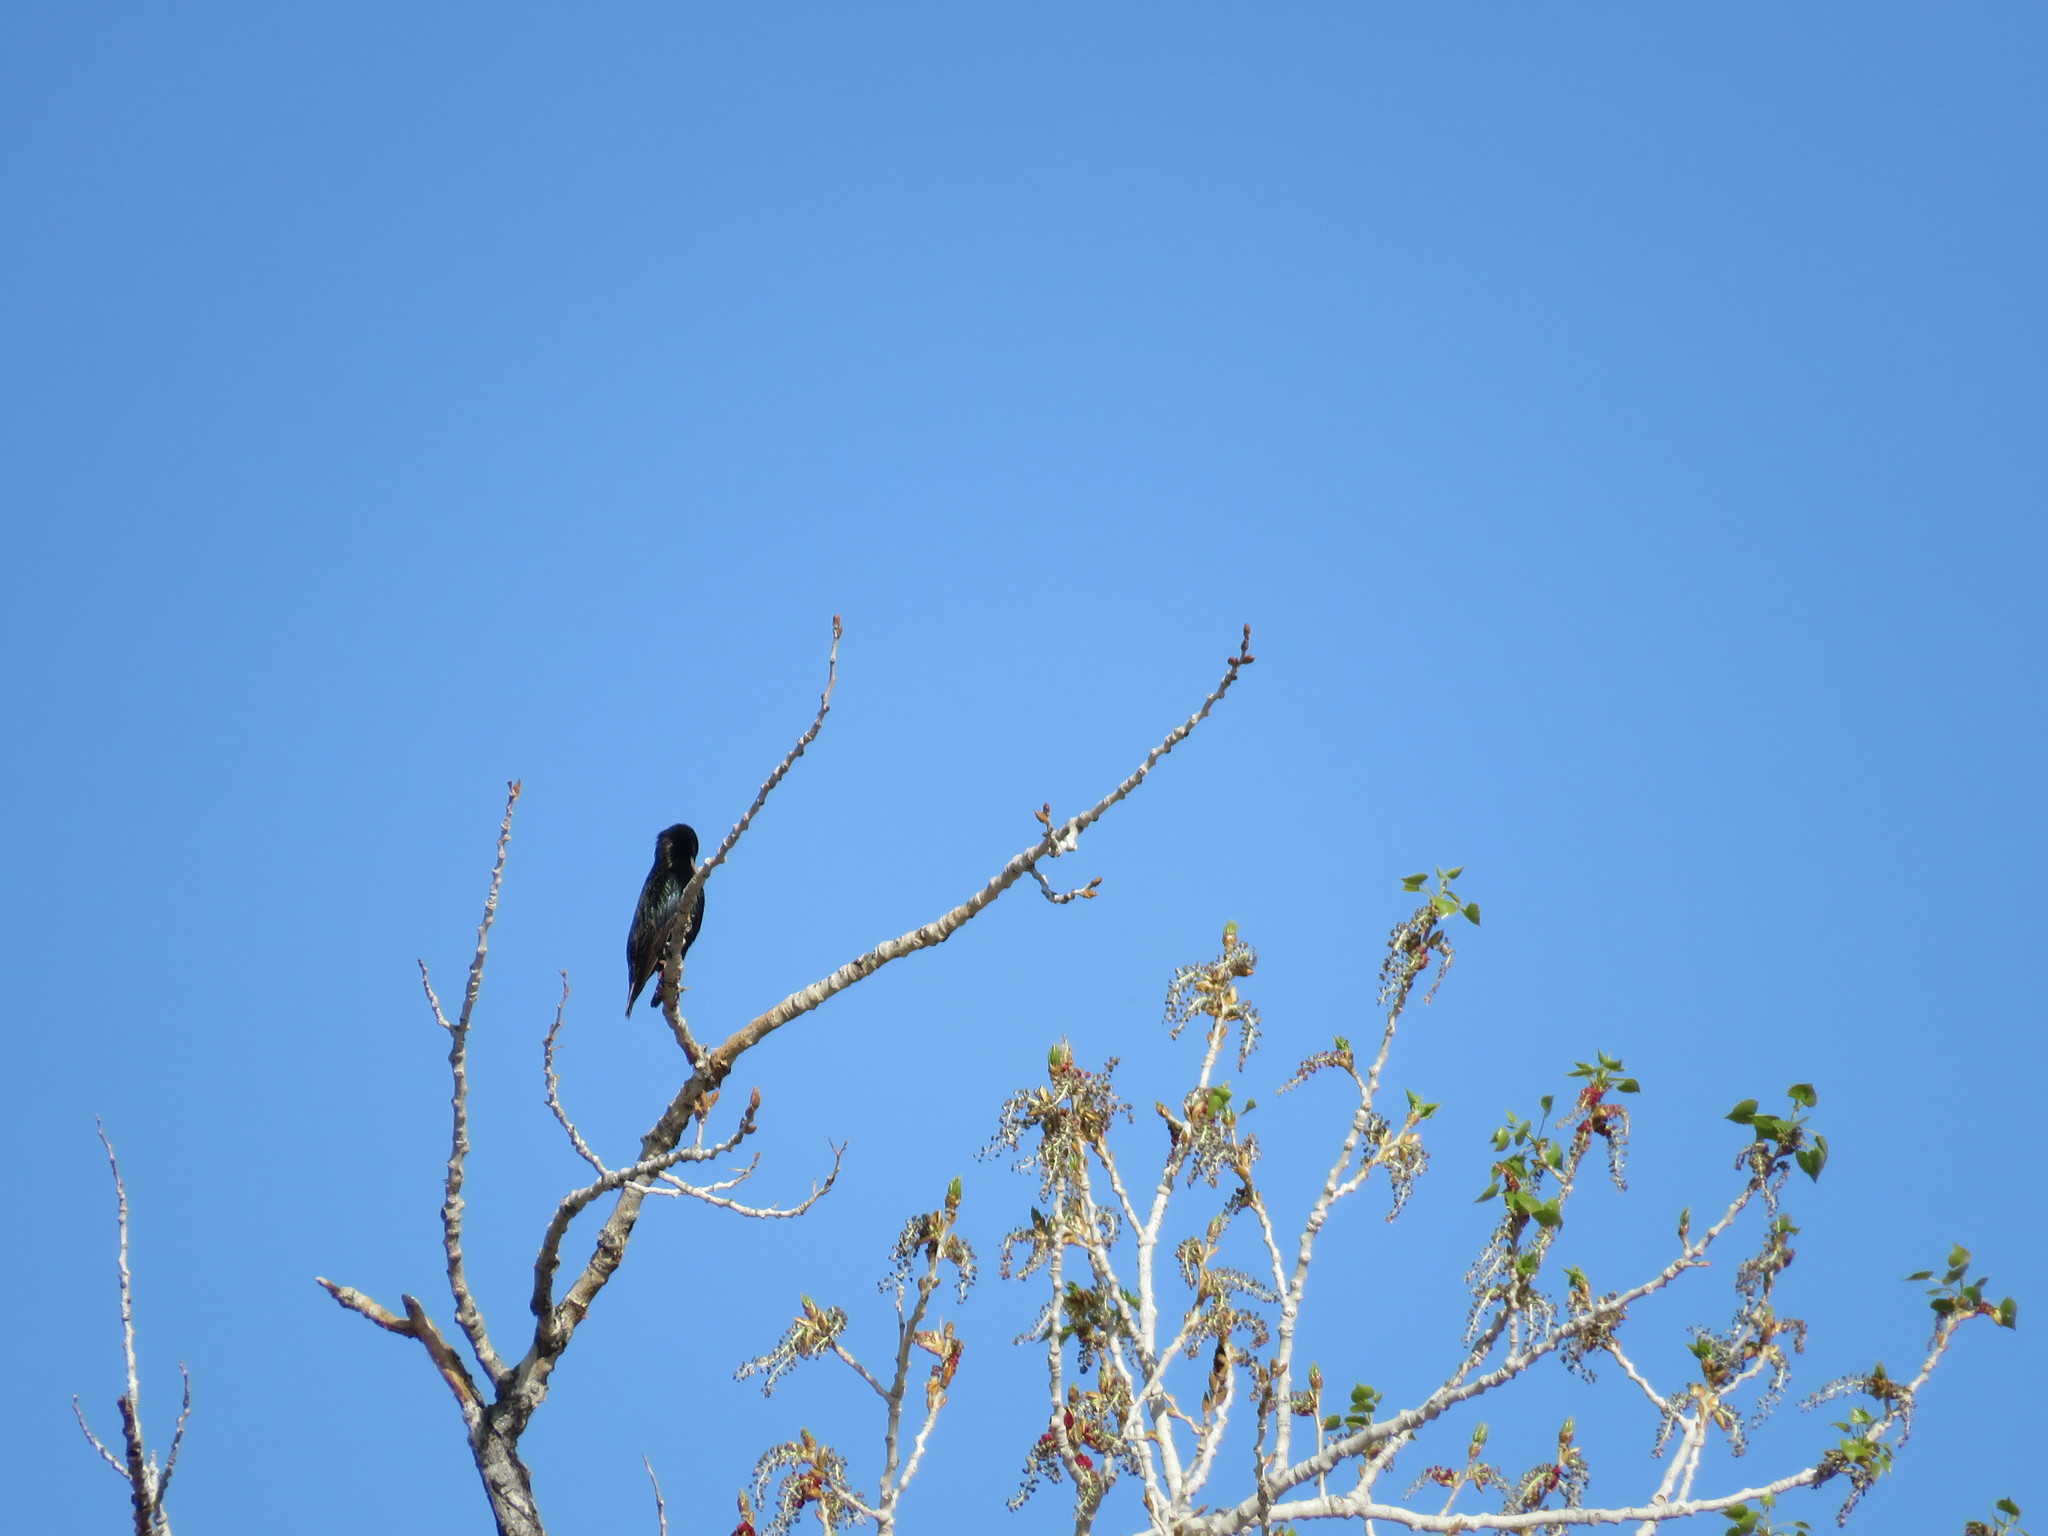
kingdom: Animalia
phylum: Chordata
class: Aves
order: Passeriformes
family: Sturnidae
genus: Sturnus
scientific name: Sturnus vulgaris
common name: Common starling
